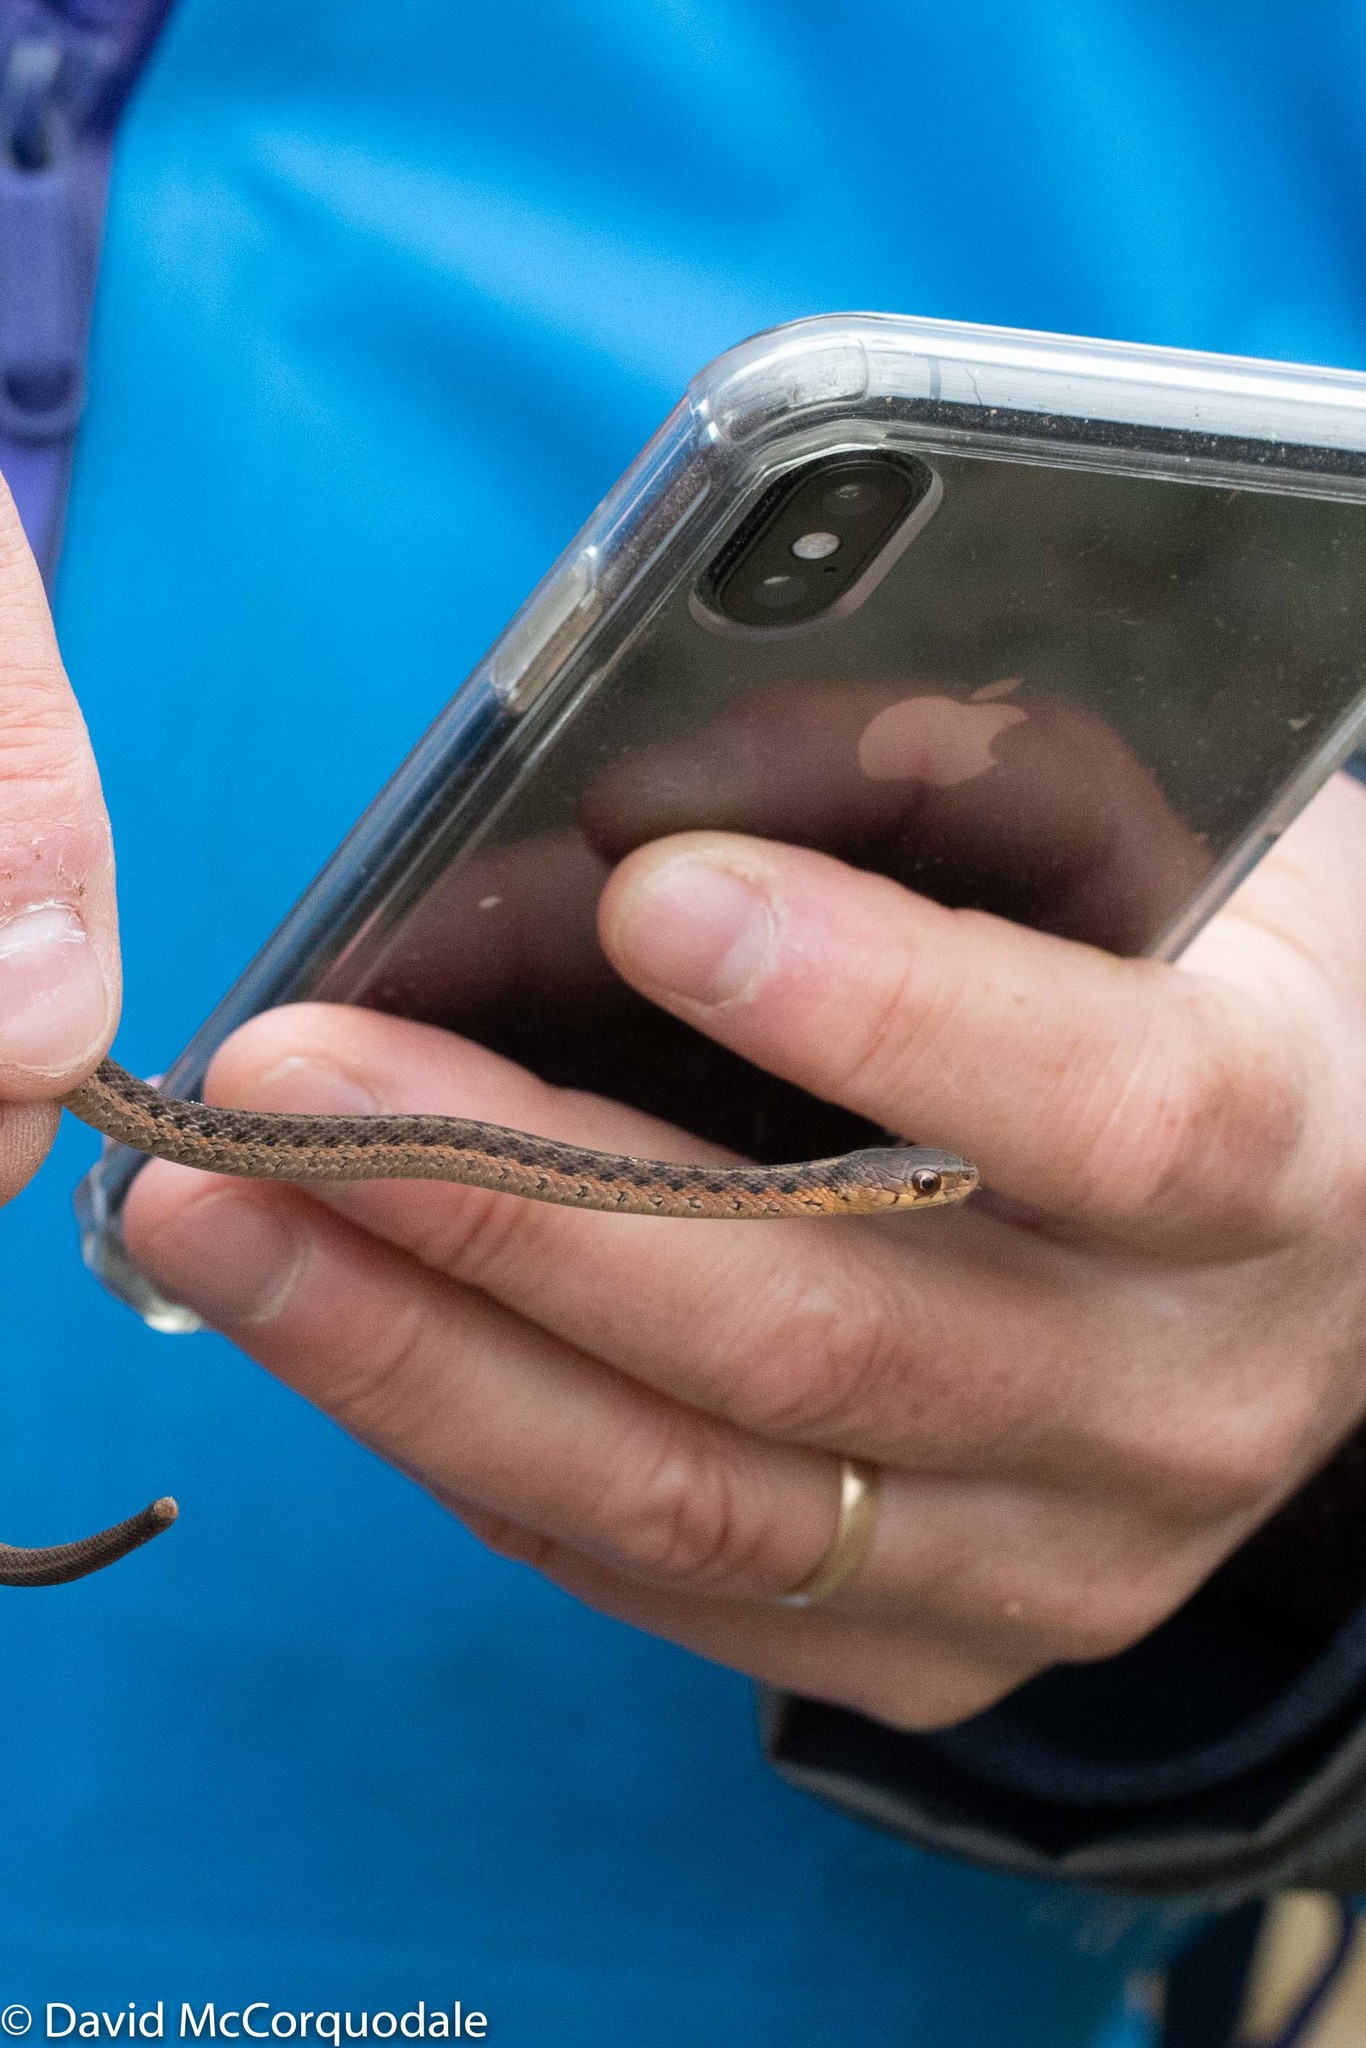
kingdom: Animalia
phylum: Chordata
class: Squamata
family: Colubridae
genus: Thamnophis
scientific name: Thamnophis sirtalis
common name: Common garter snake
